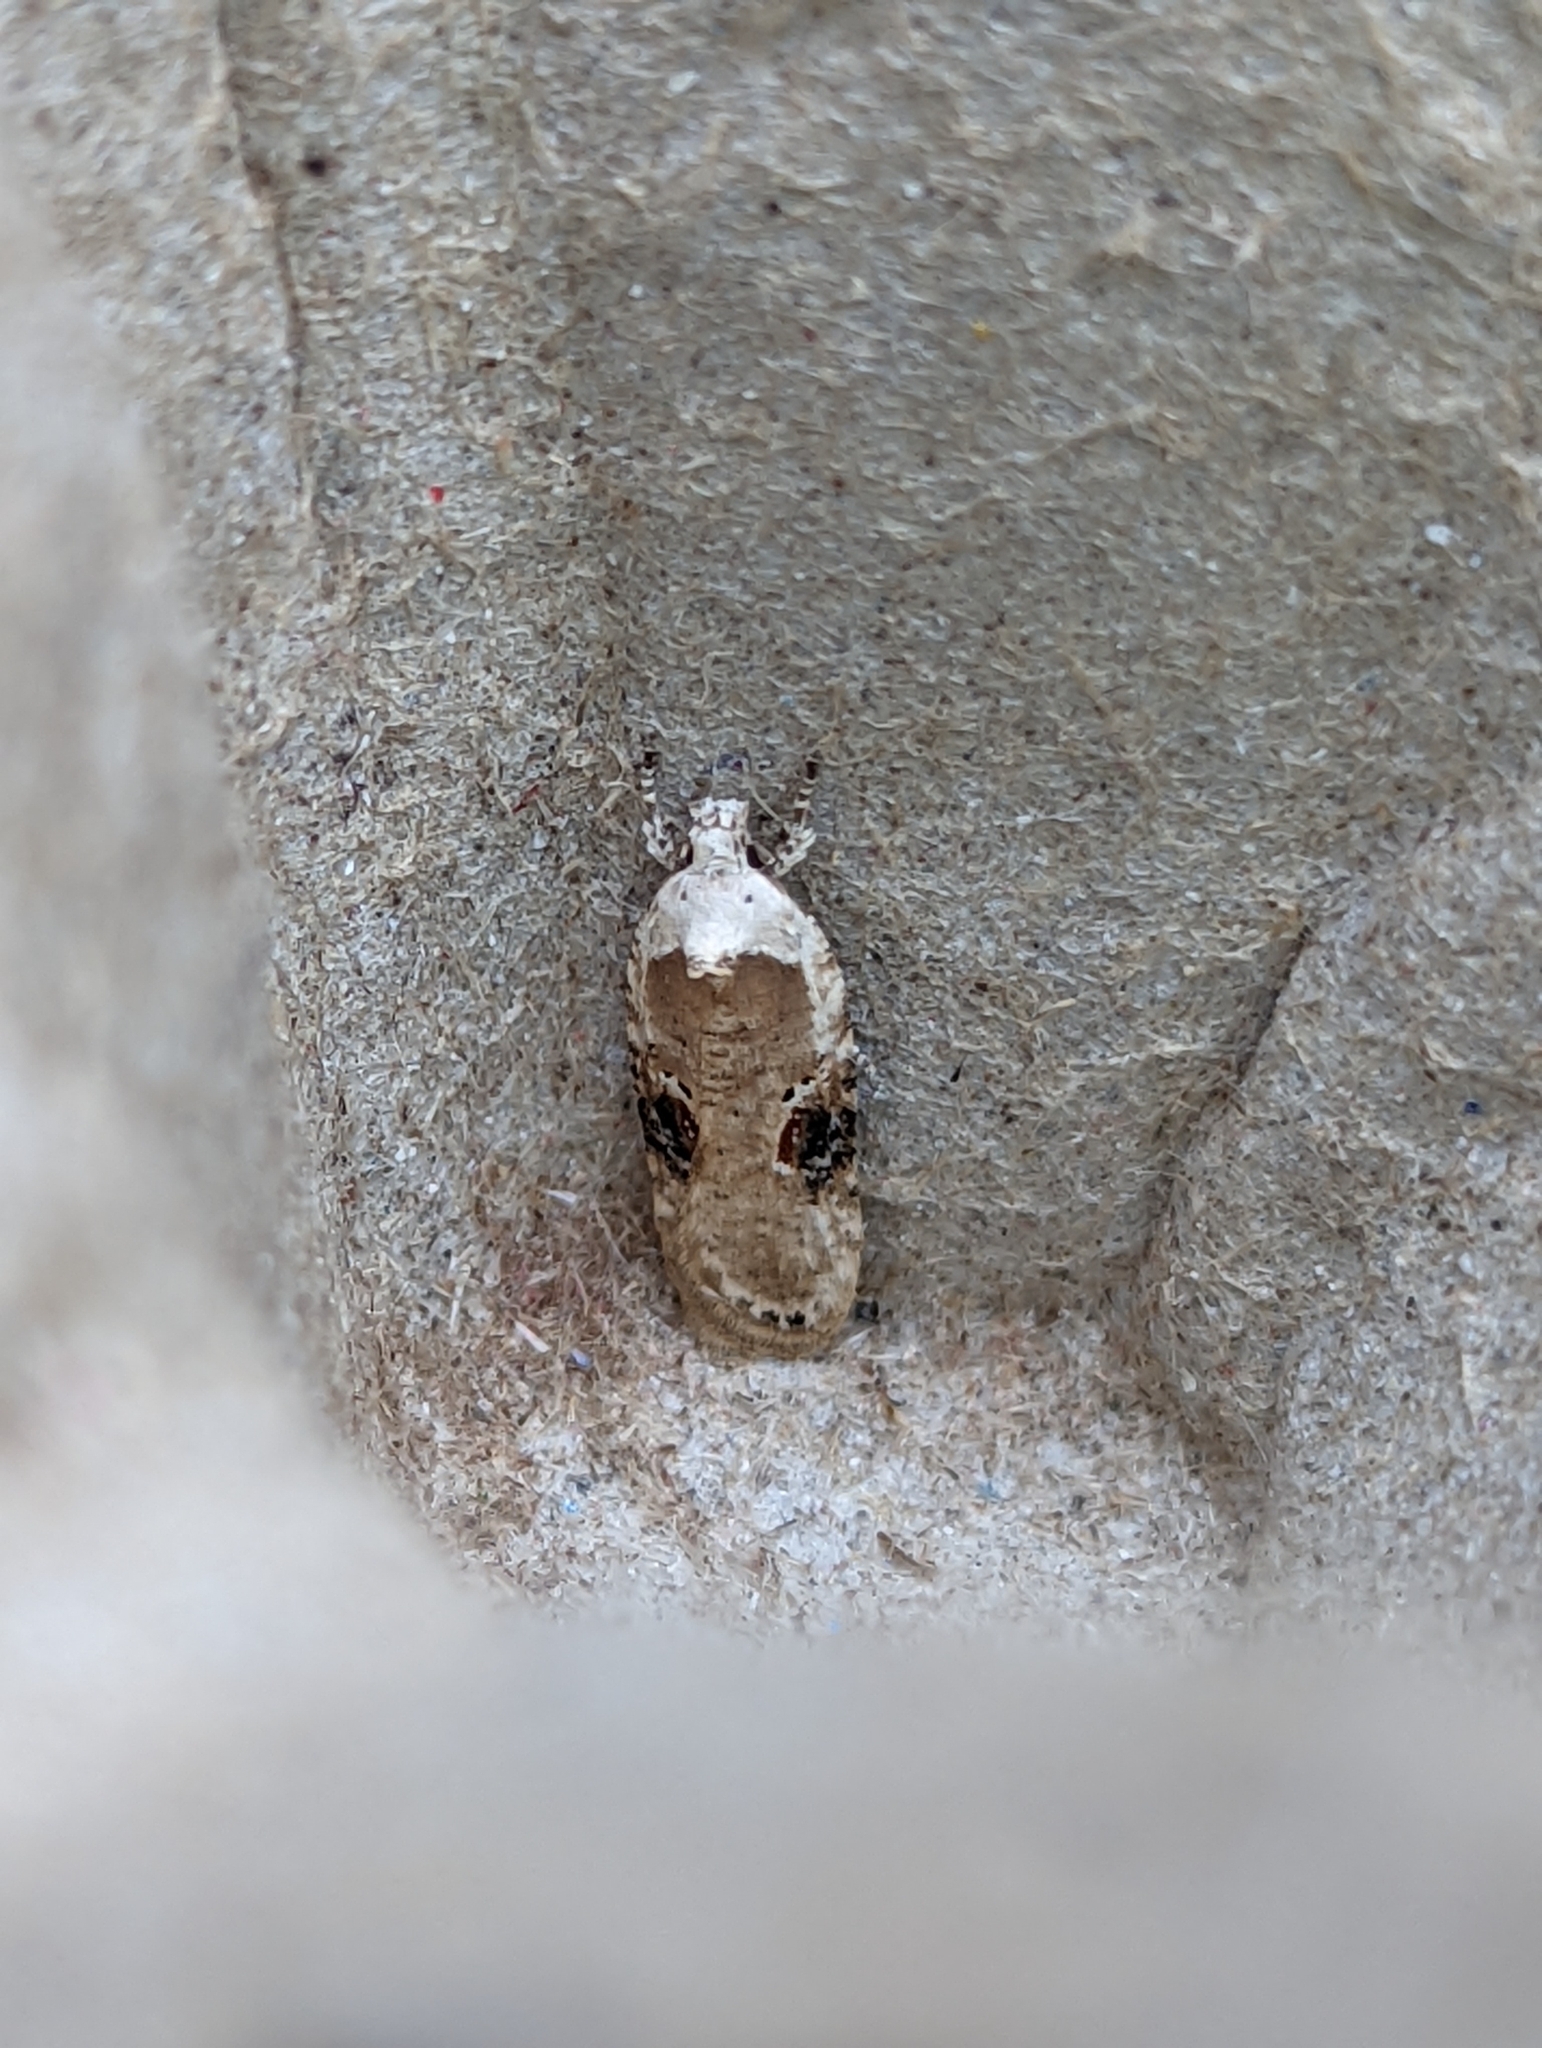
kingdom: Animalia
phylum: Arthropoda
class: Insecta
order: Lepidoptera
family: Depressariidae
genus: Agonopterix
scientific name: Agonopterix alstroemeriana
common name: Moth
